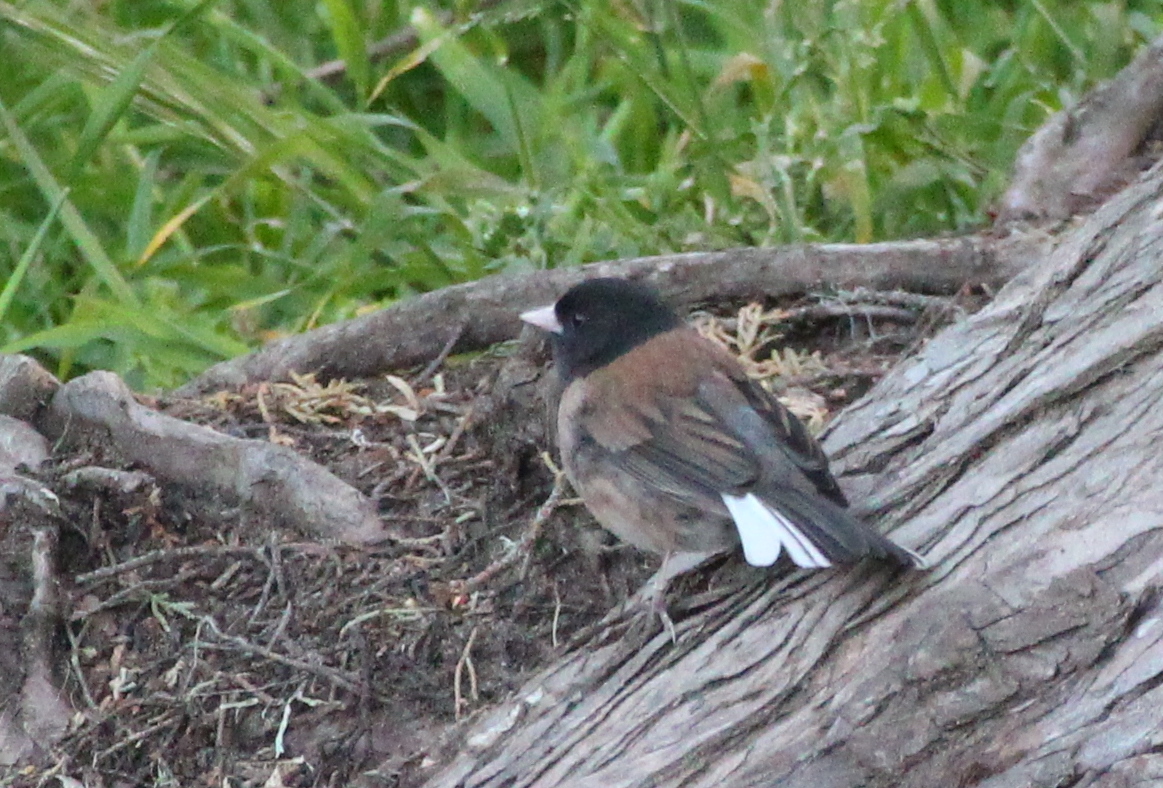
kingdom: Animalia
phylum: Chordata
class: Aves
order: Passeriformes
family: Passerellidae
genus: Junco
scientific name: Junco hyemalis
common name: Dark-eyed junco
